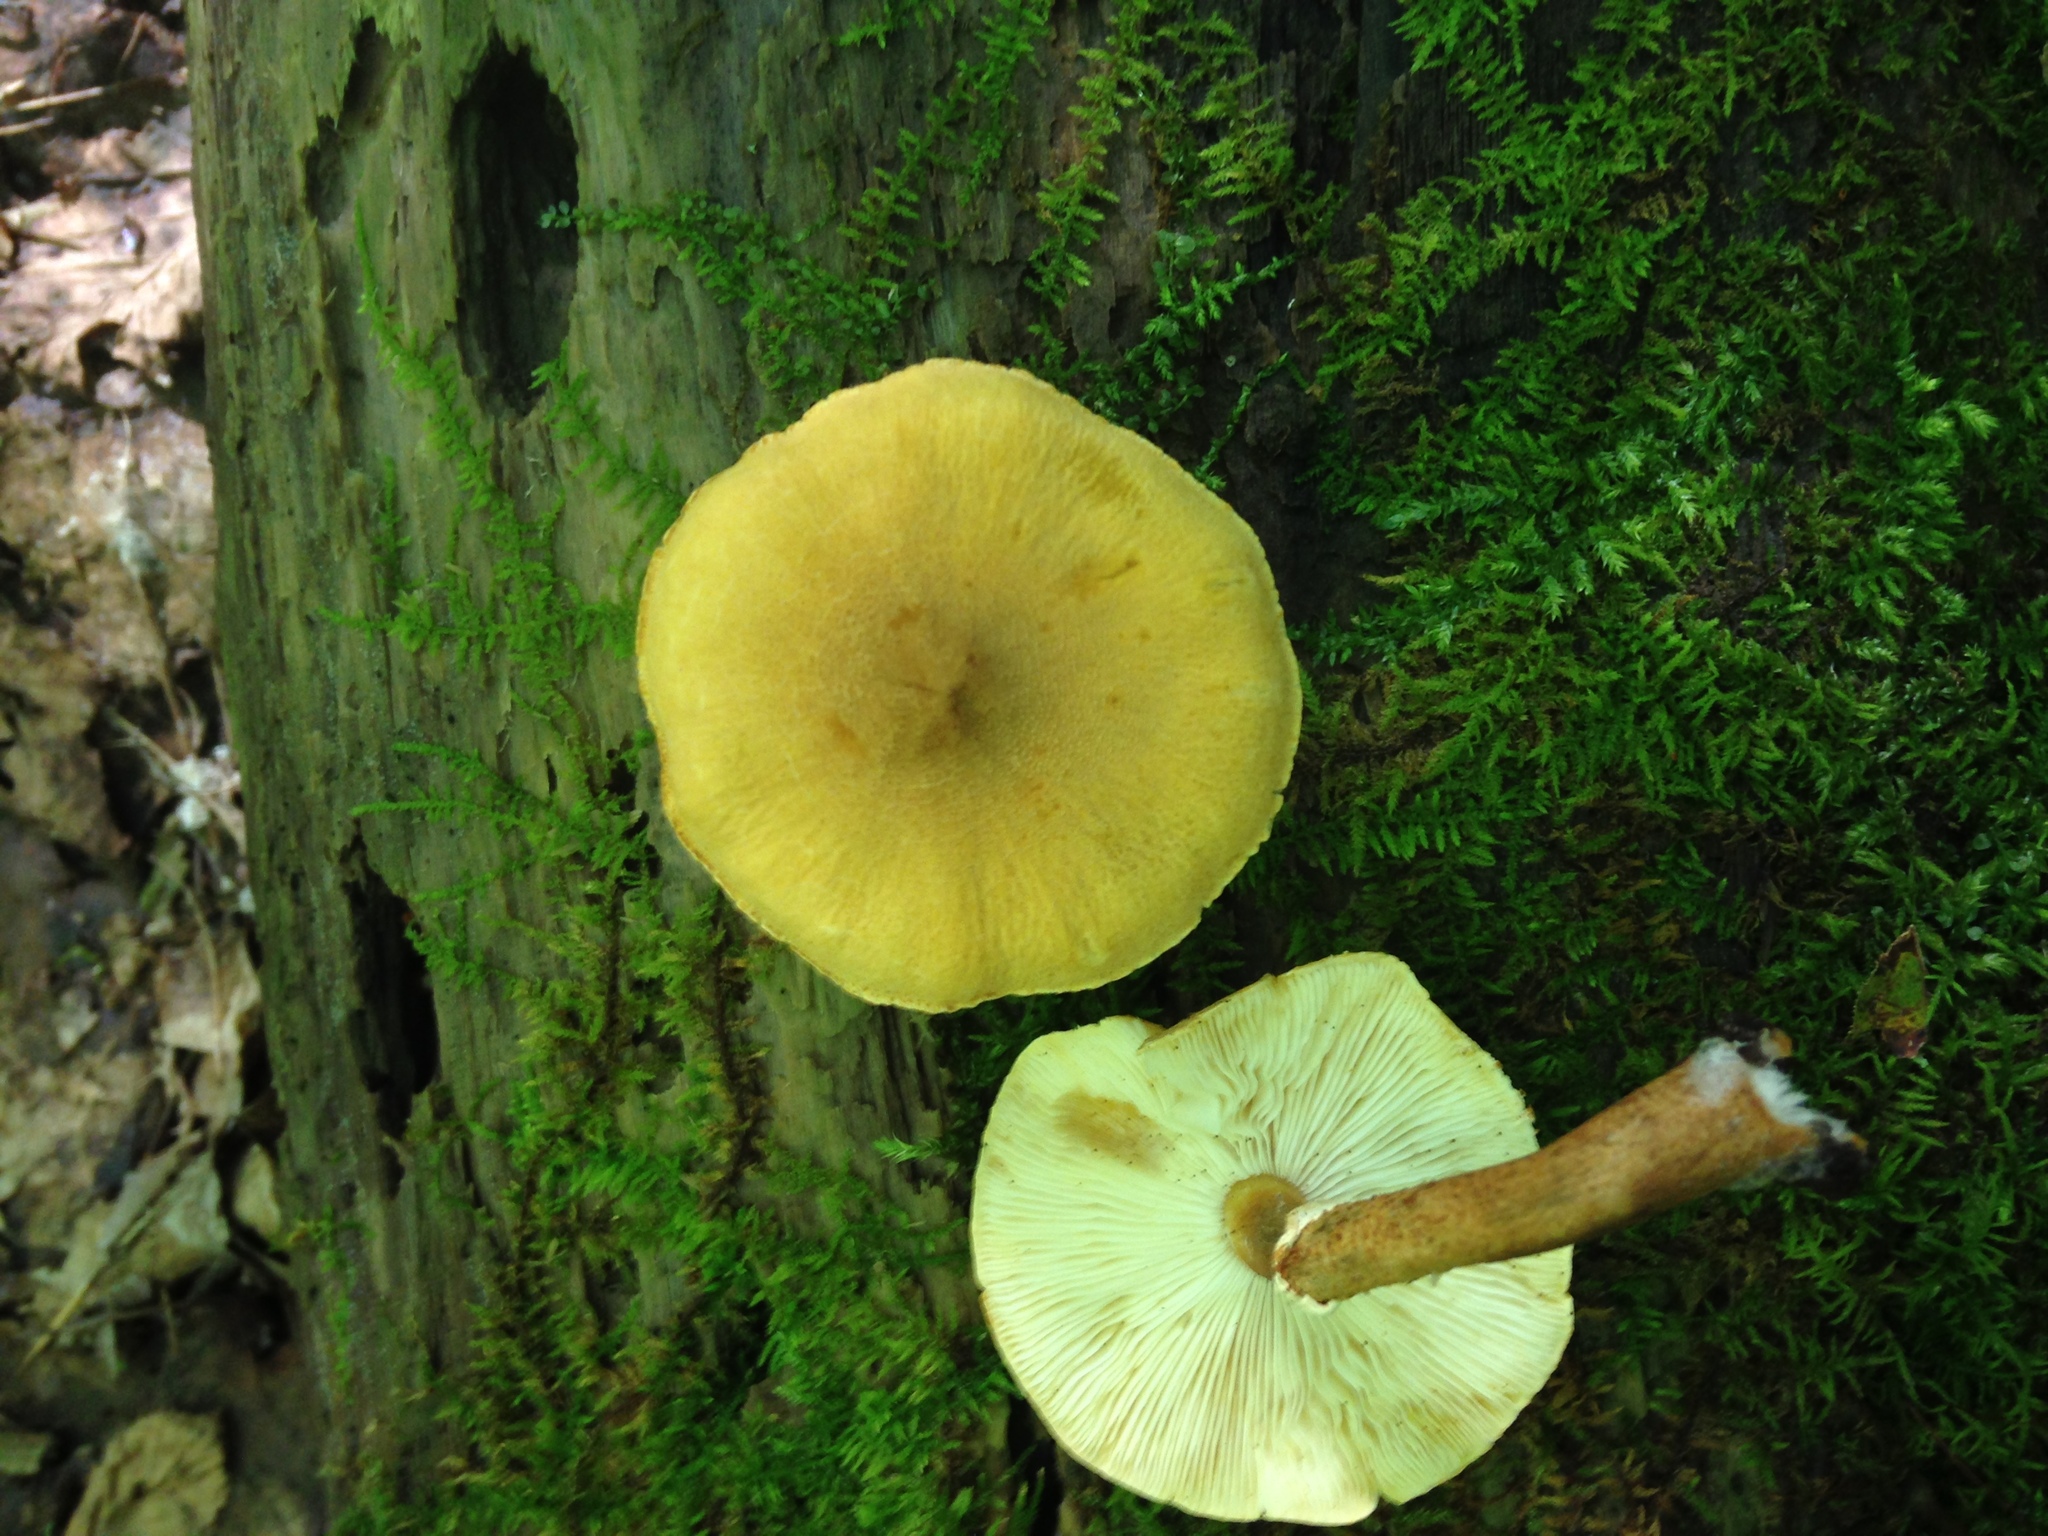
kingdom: Fungi
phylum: Basidiomycota
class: Agaricomycetes
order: Agaricales
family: Tricholomataceae
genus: Cystoderma
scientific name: Cystoderma granosum
